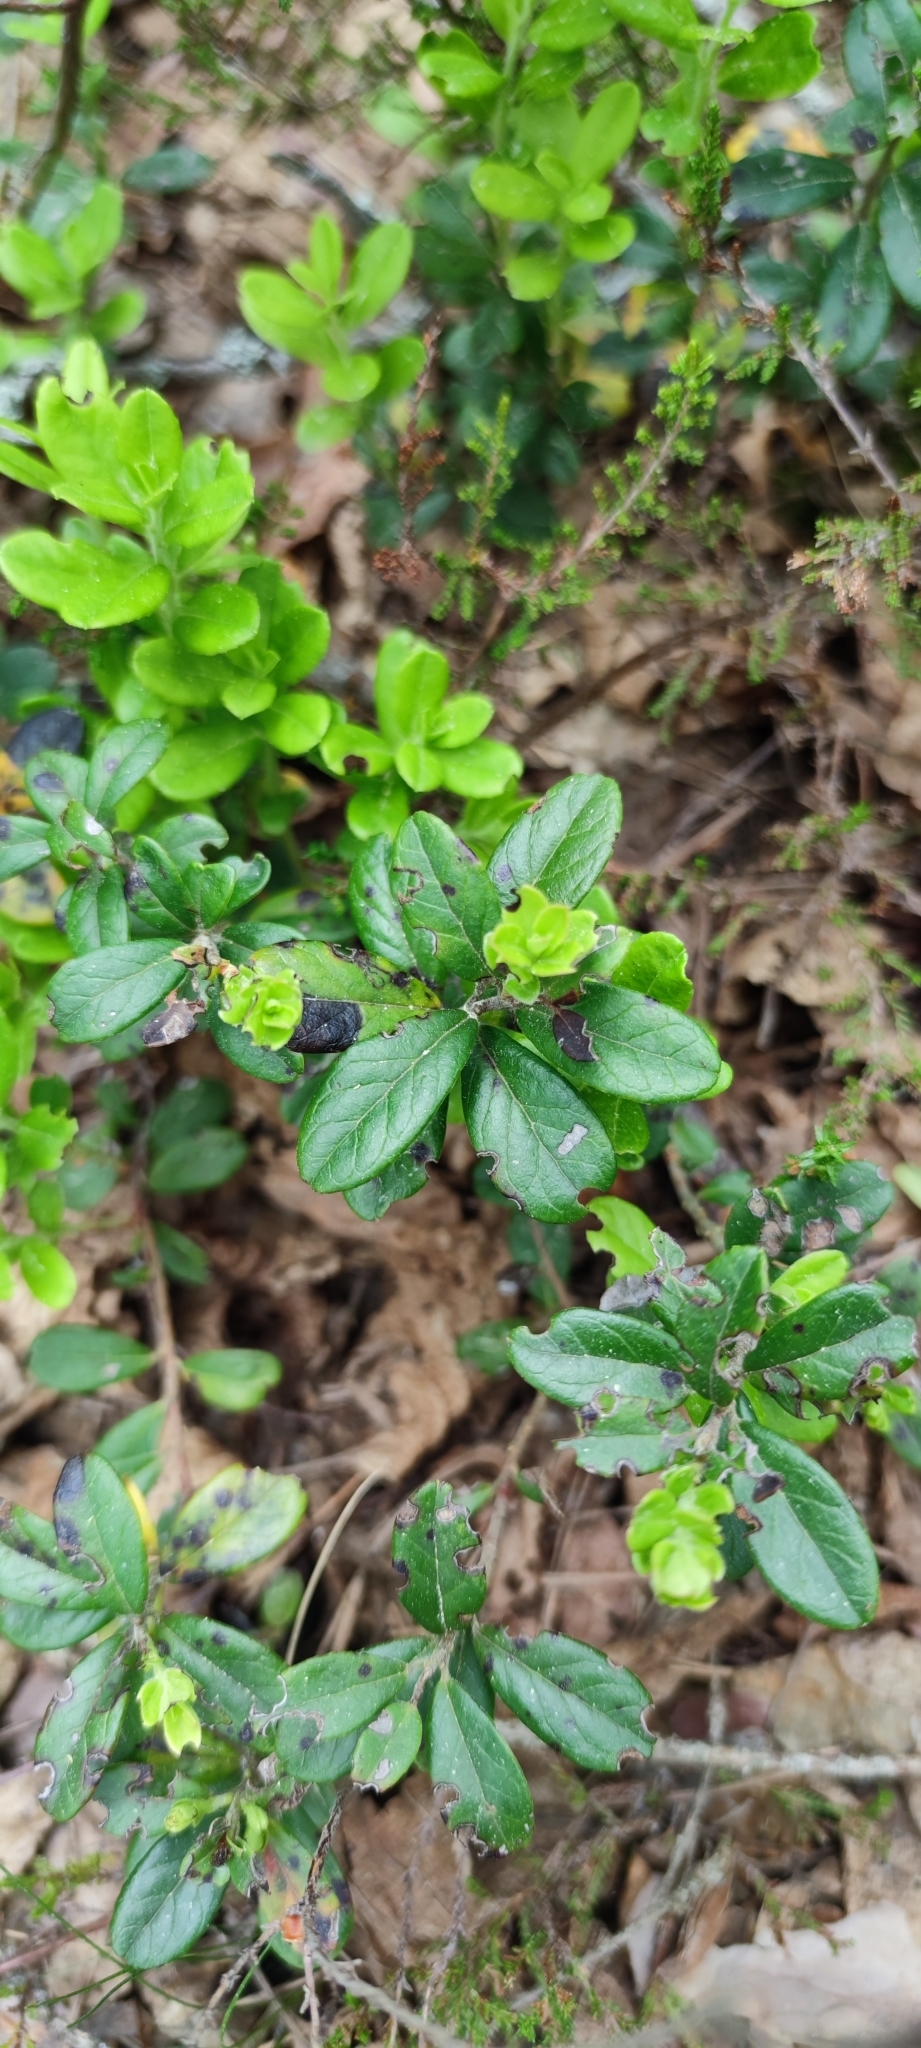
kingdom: Plantae
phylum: Tracheophyta
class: Magnoliopsida
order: Ericales
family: Ericaceae
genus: Vaccinium
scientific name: Vaccinium vitis-idaea
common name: Cowberry
